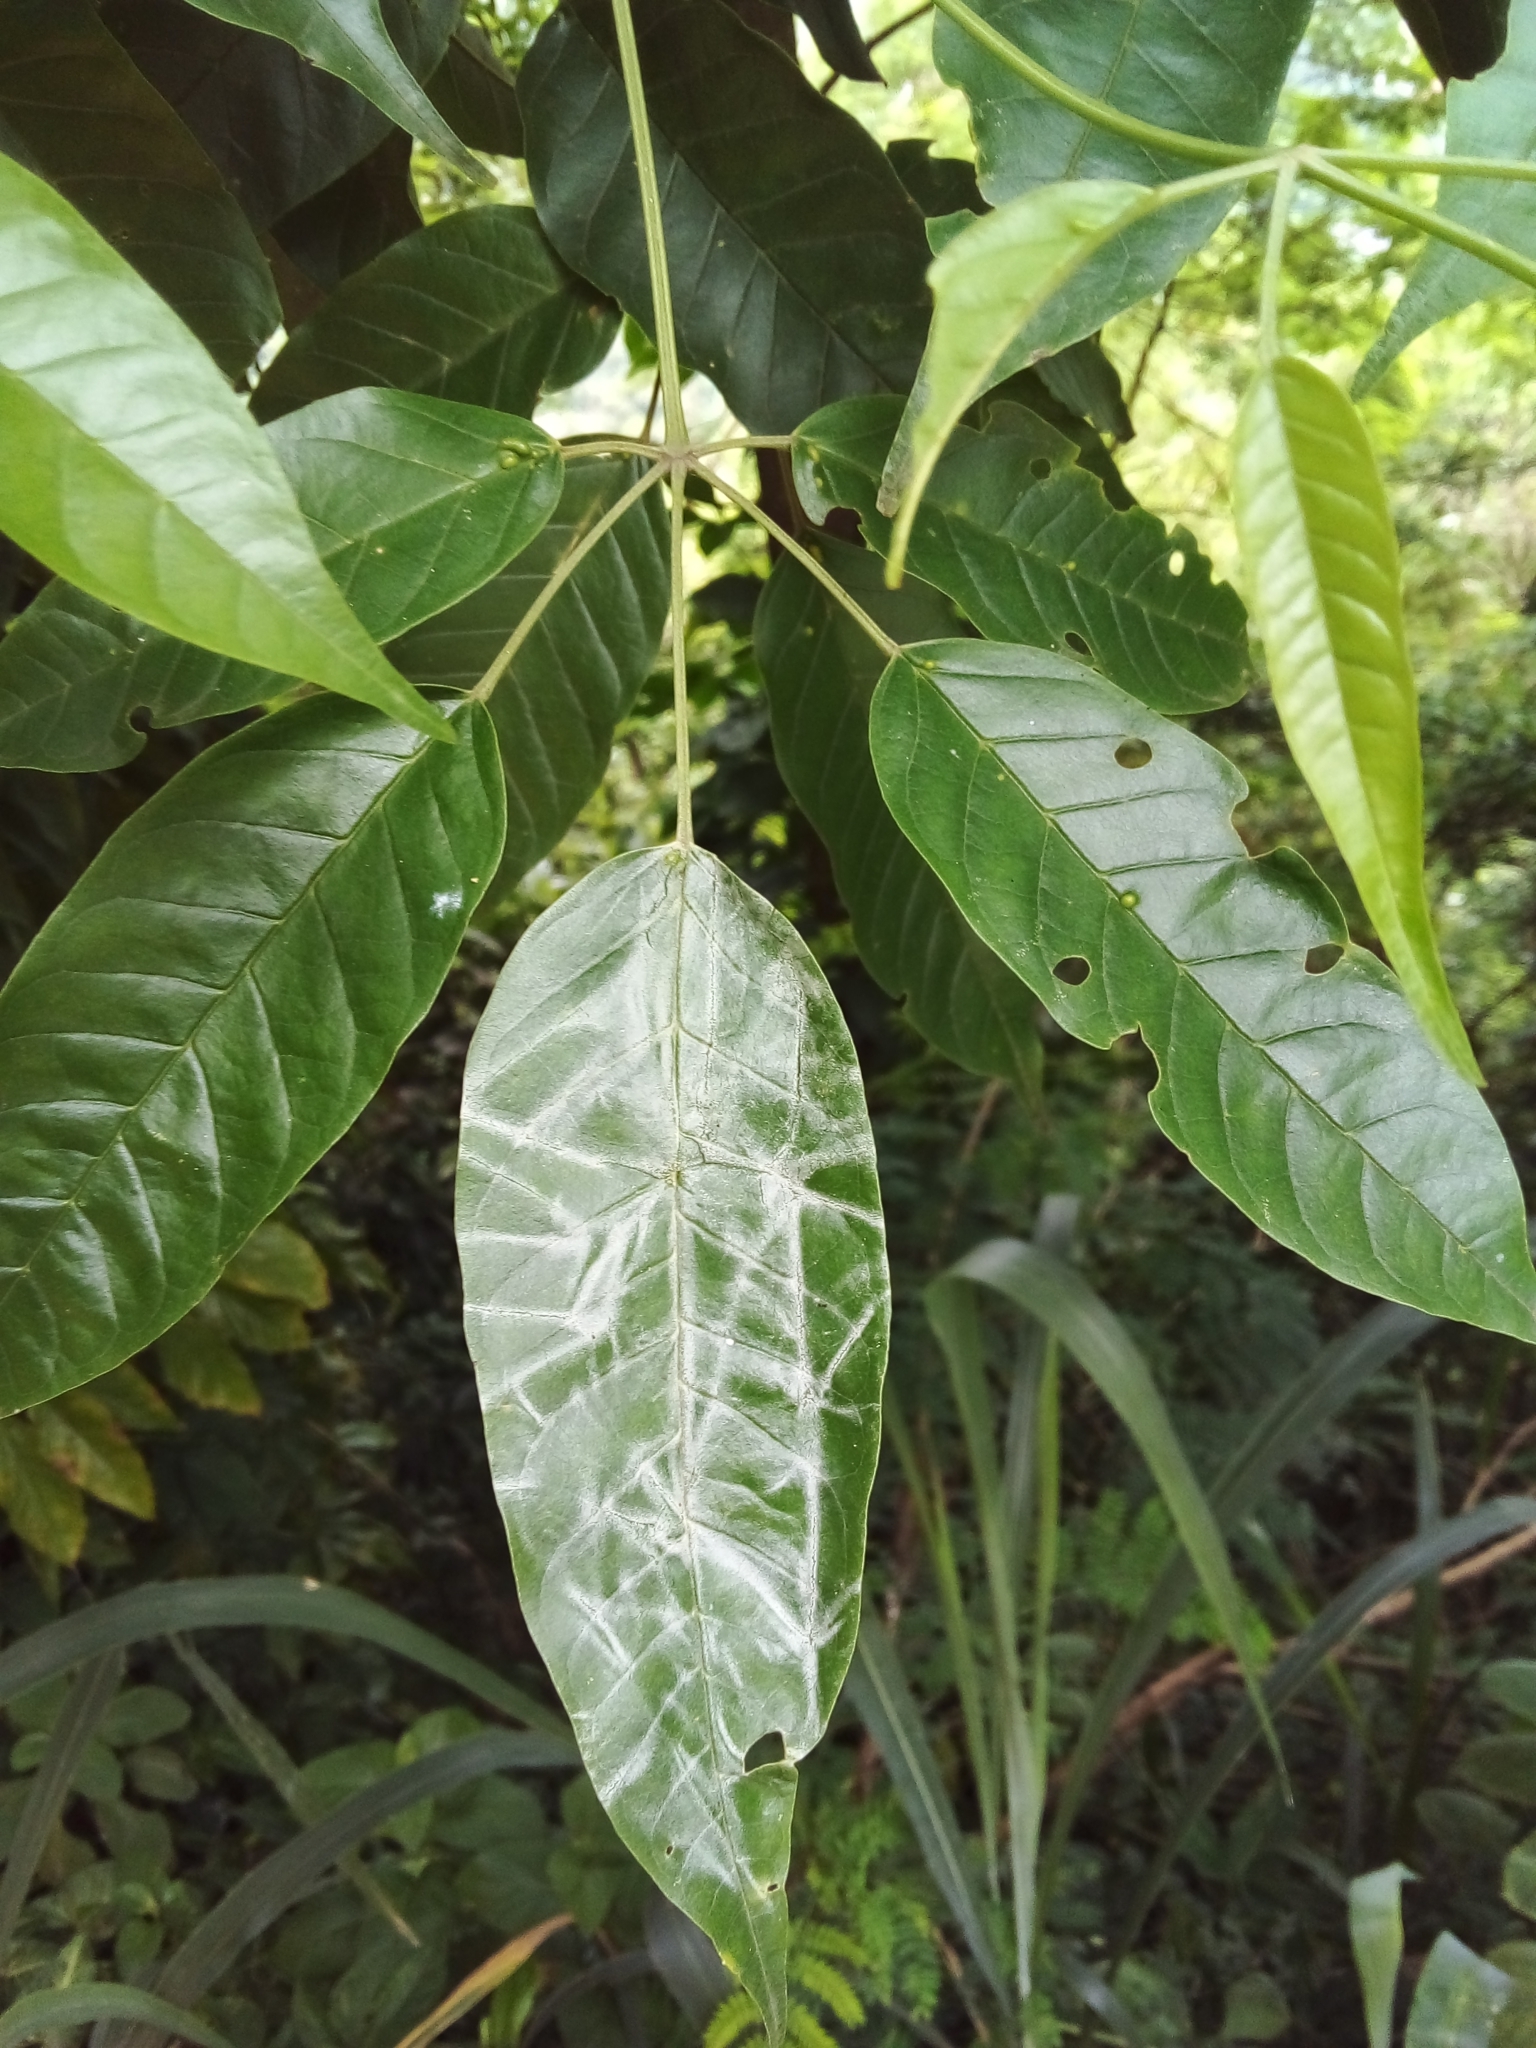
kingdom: Plantae
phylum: Tracheophyta
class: Magnoliopsida
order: Lamiales
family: Bignoniaceae
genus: Sparattosperma
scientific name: Sparattosperma leucanthum
